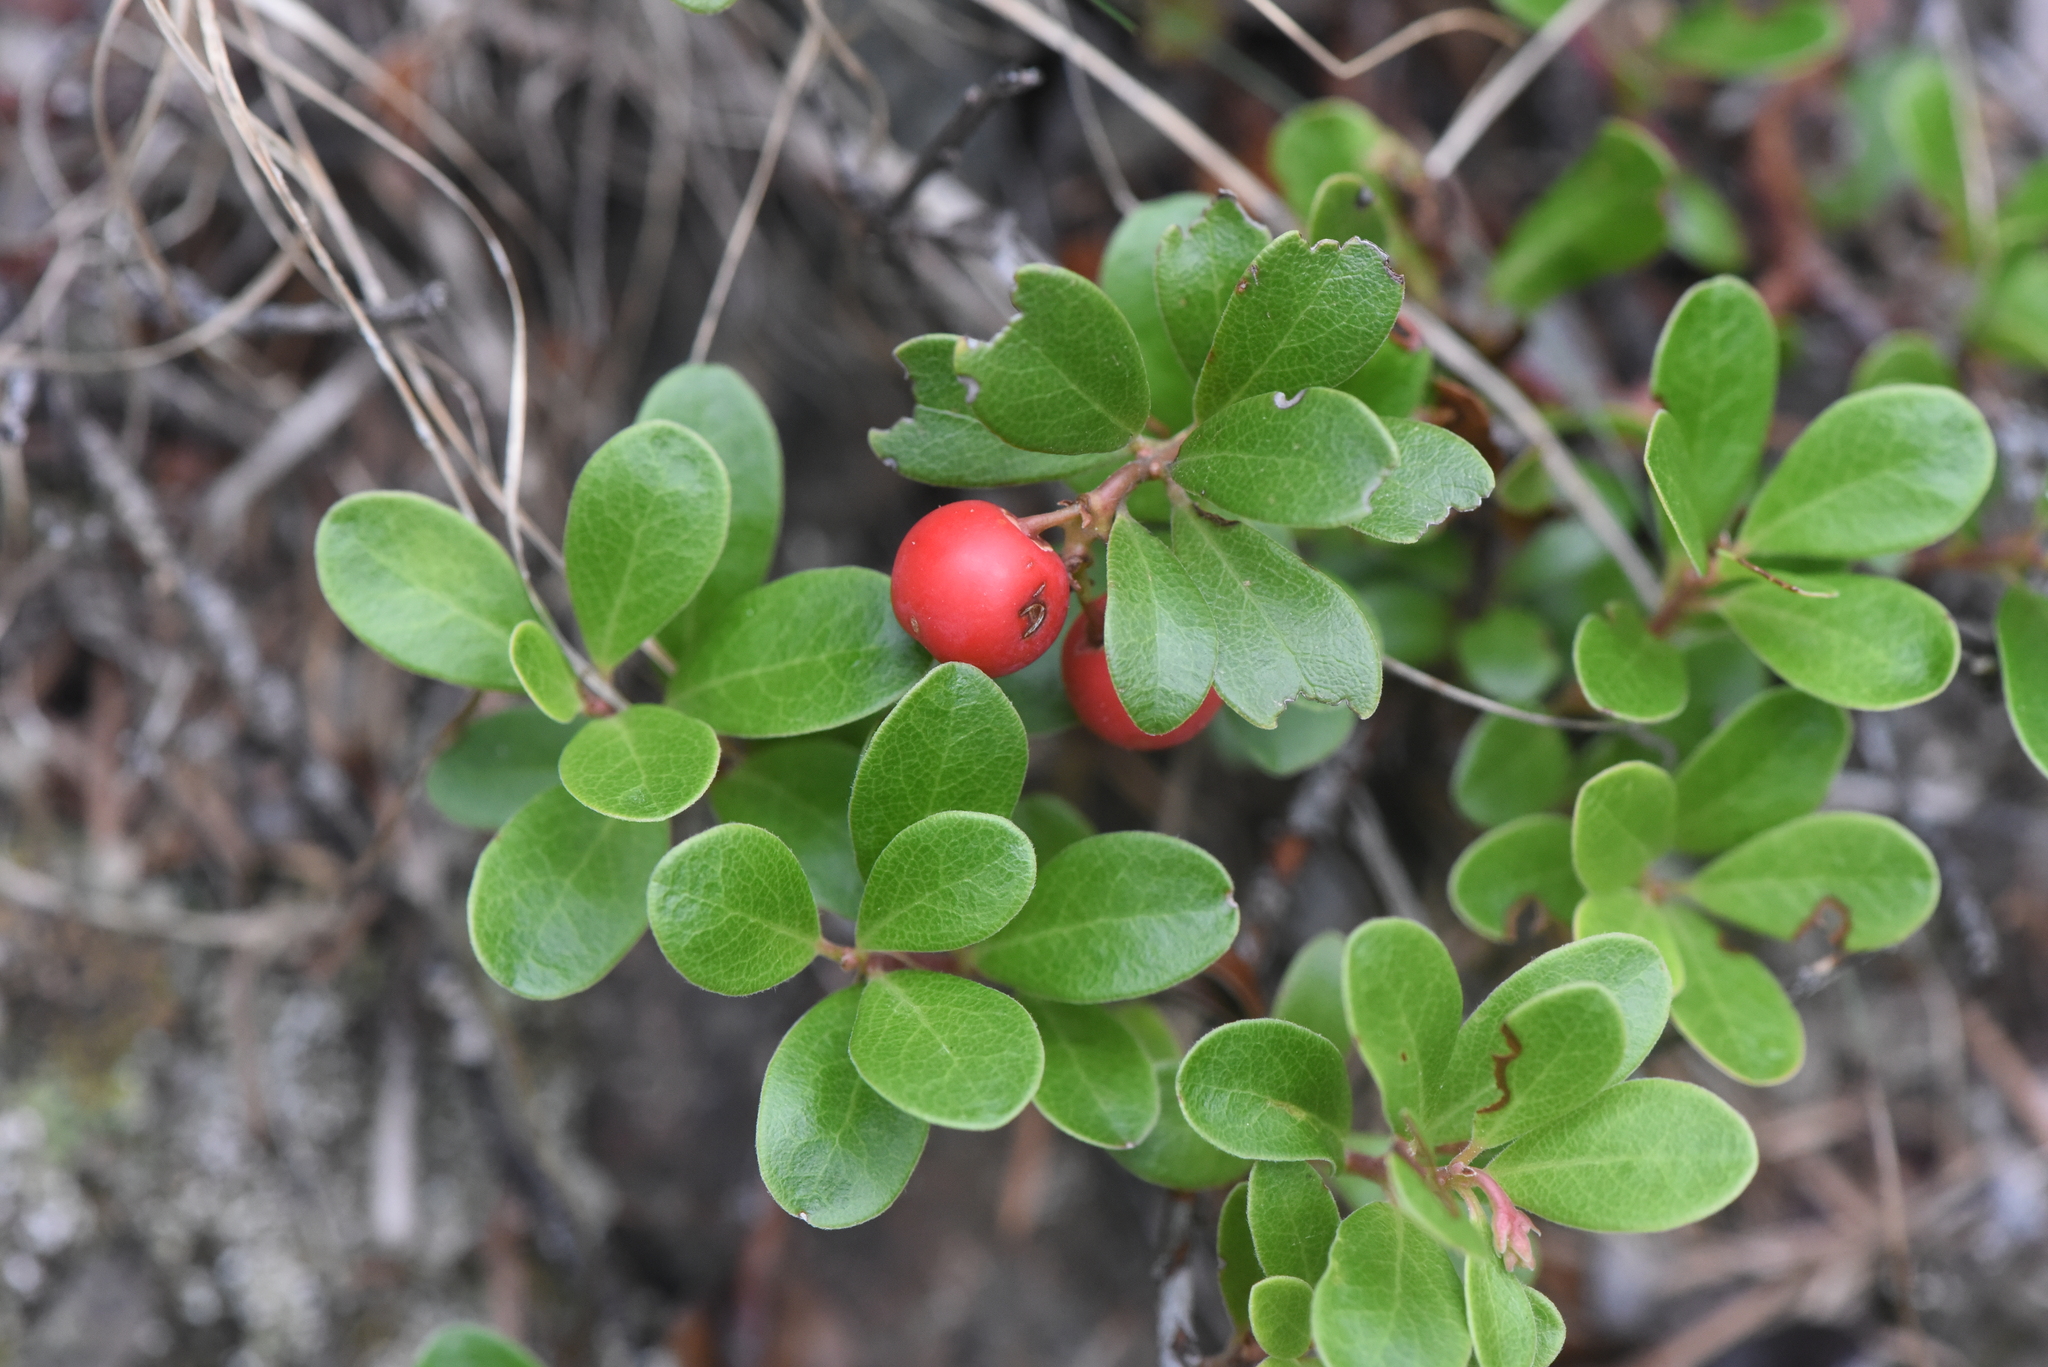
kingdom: Plantae
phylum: Tracheophyta
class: Magnoliopsida
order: Ericales
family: Ericaceae
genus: Arctostaphylos
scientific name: Arctostaphylos uva-ursi
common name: Bearberry
